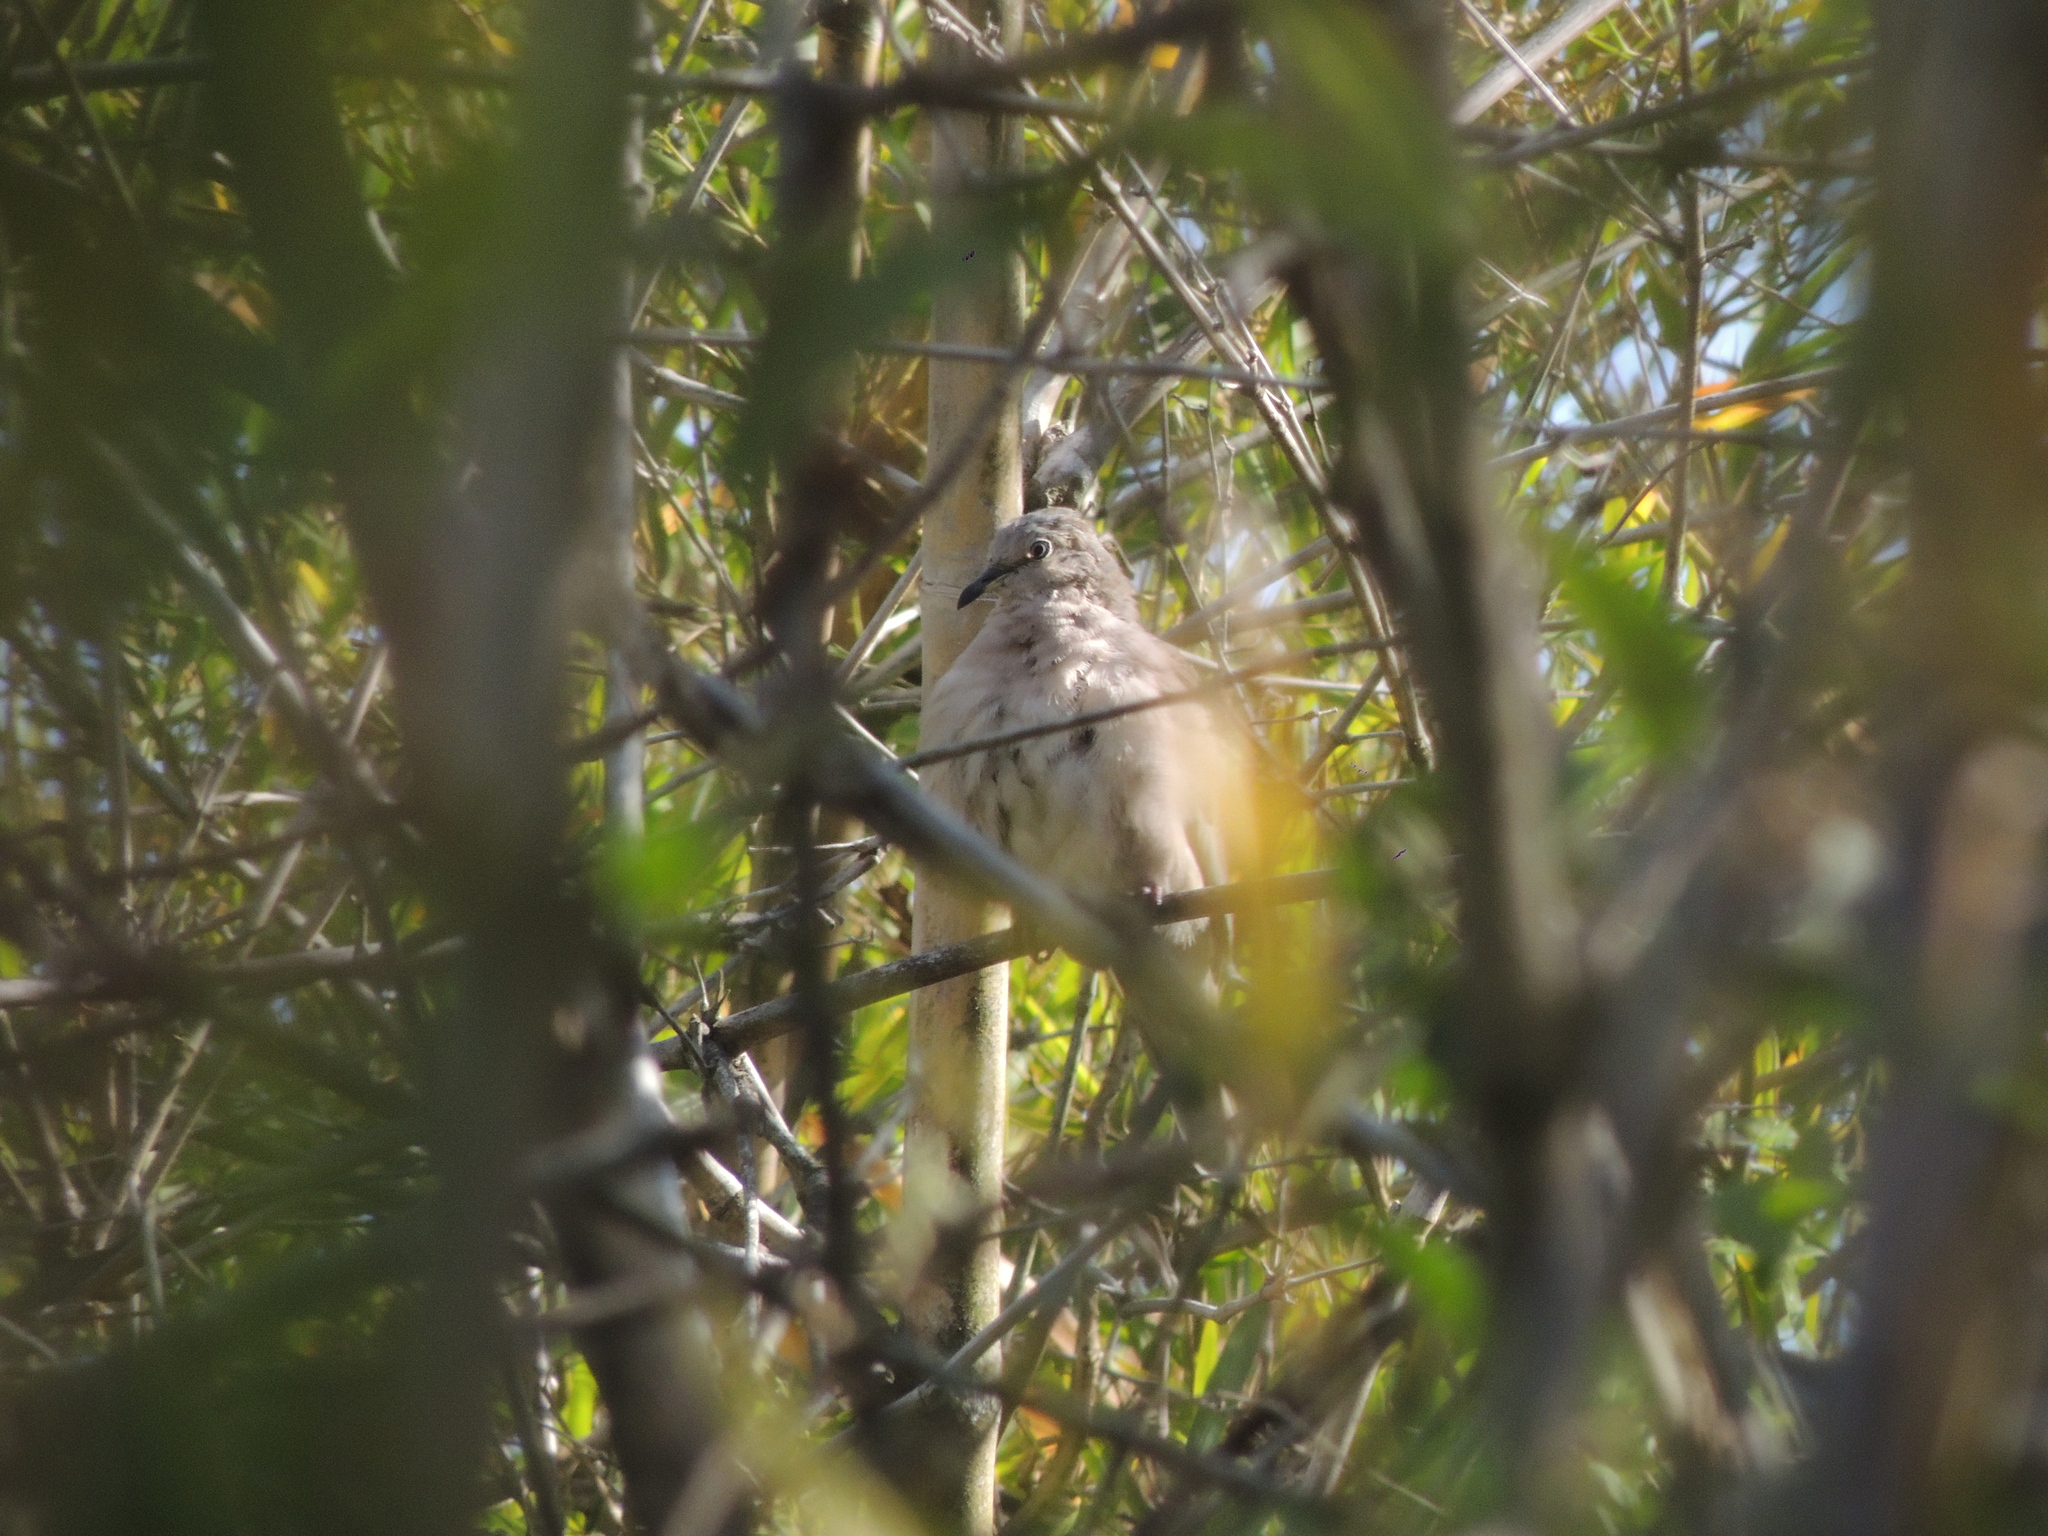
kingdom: Animalia
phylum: Chordata
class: Aves
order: Columbiformes
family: Columbidae
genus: Columbina
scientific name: Columbina picui
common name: Picui ground dove
